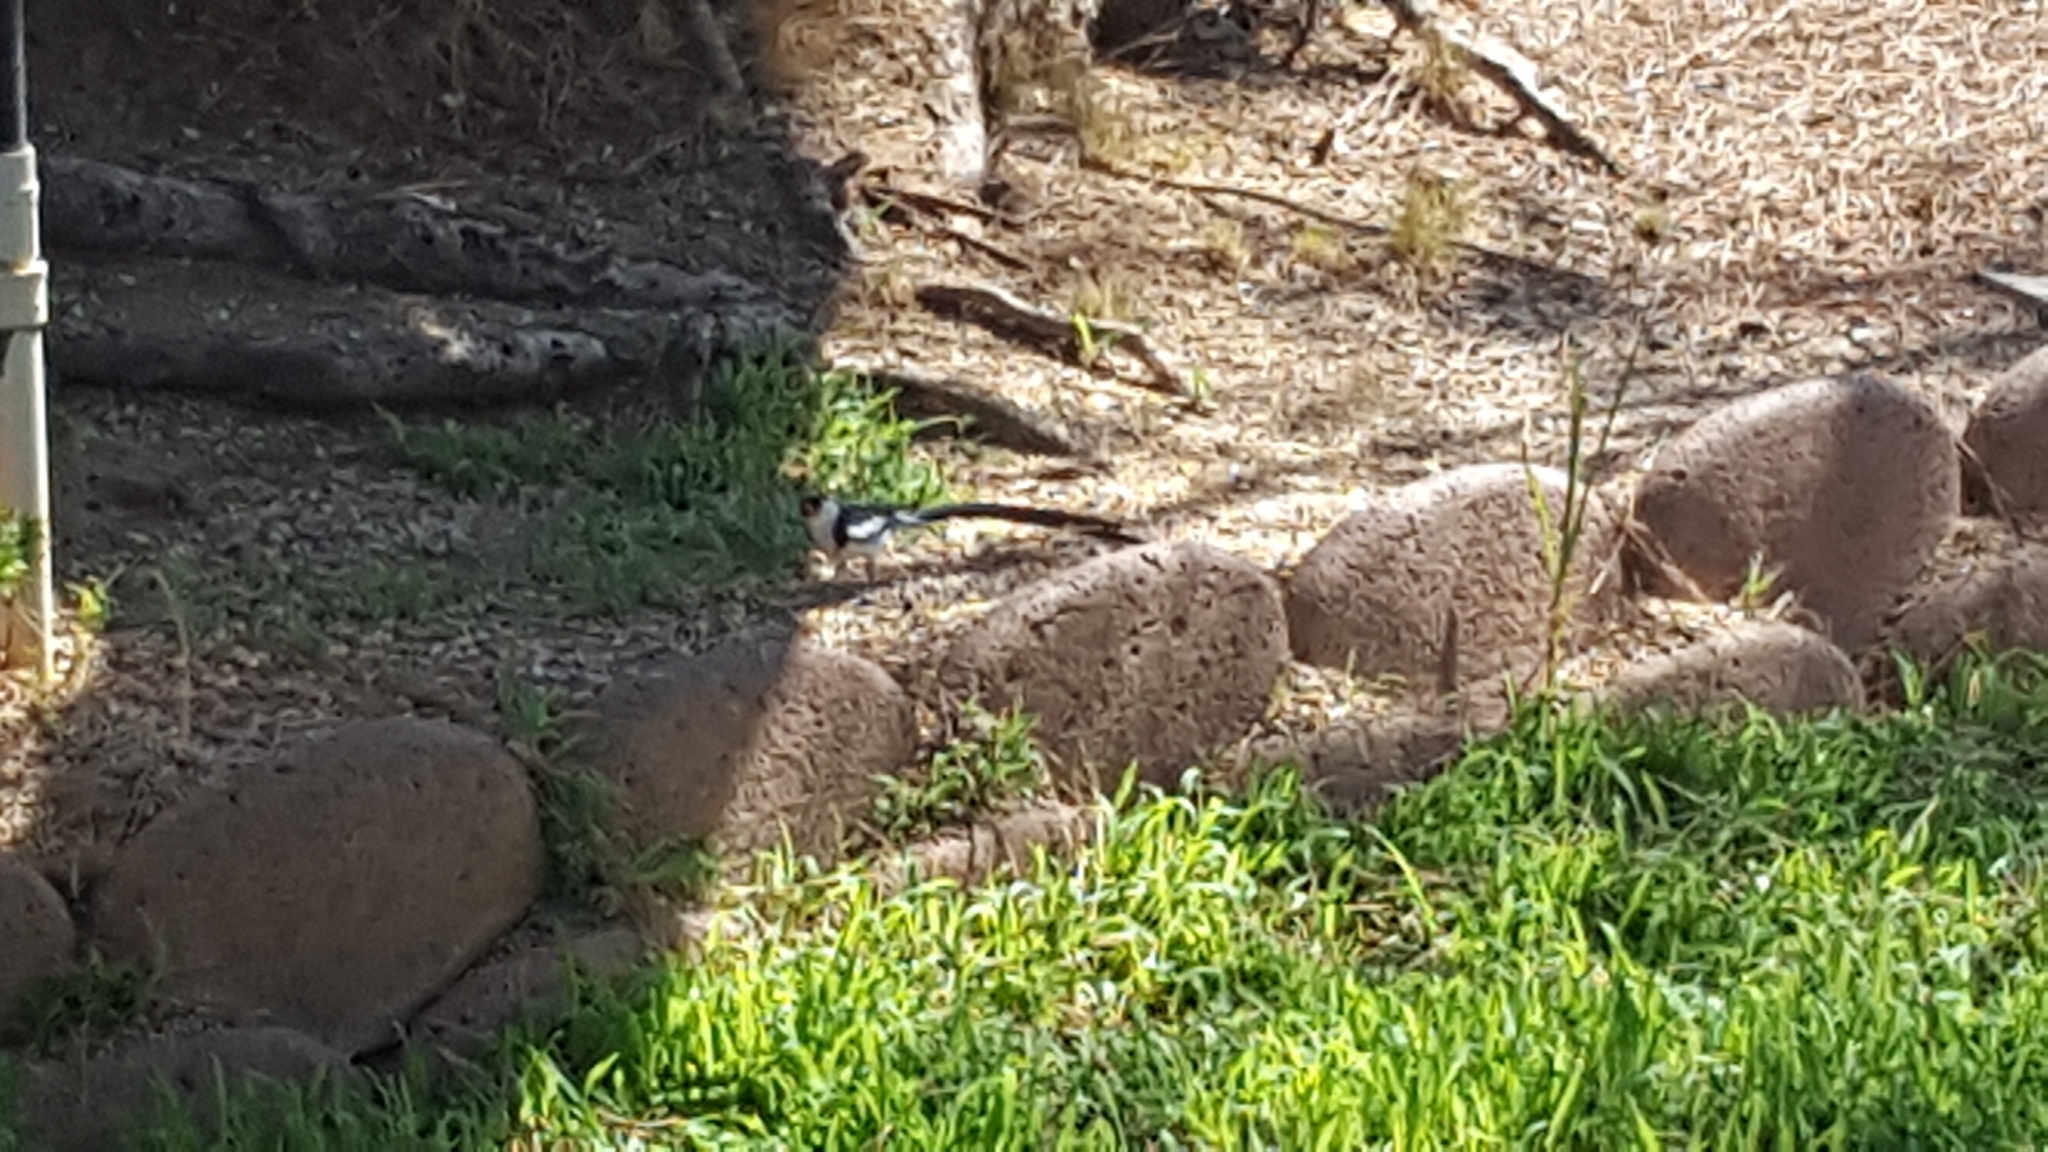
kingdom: Animalia
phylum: Chordata
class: Aves
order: Passeriformes
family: Viduidae
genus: Vidua
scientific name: Vidua macroura
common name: Pin-tailed whydah
